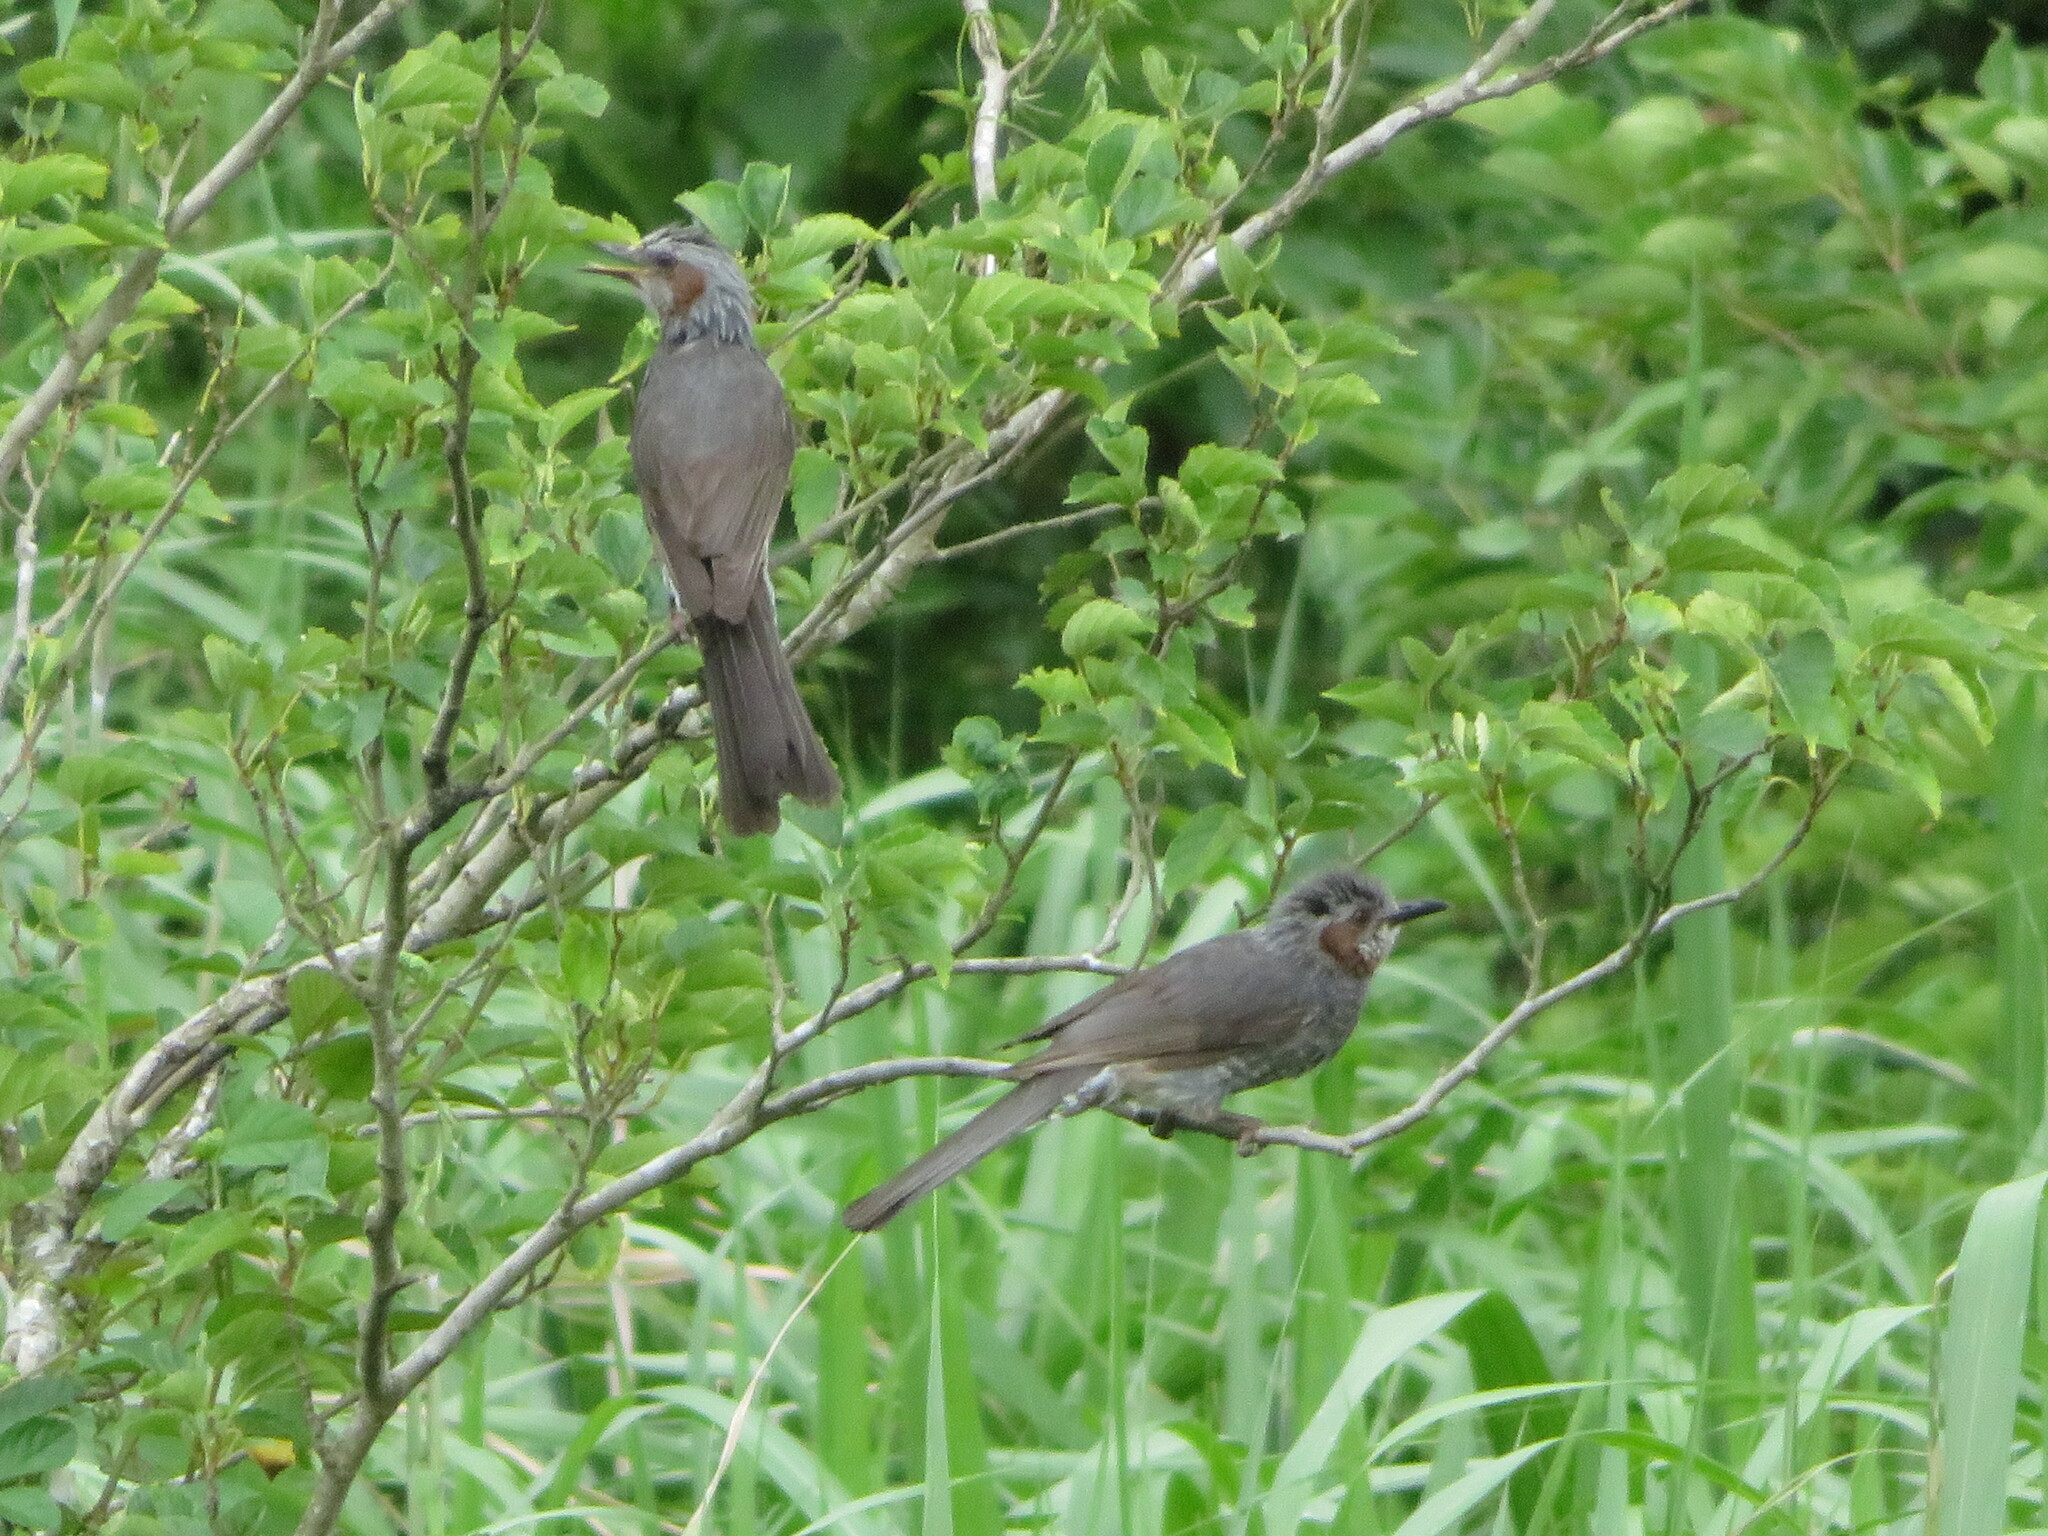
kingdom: Animalia
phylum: Chordata
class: Aves
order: Passeriformes
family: Pycnonotidae
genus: Hypsipetes
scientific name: Hypsipetes amaurotis
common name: Brown-eared bulbul
